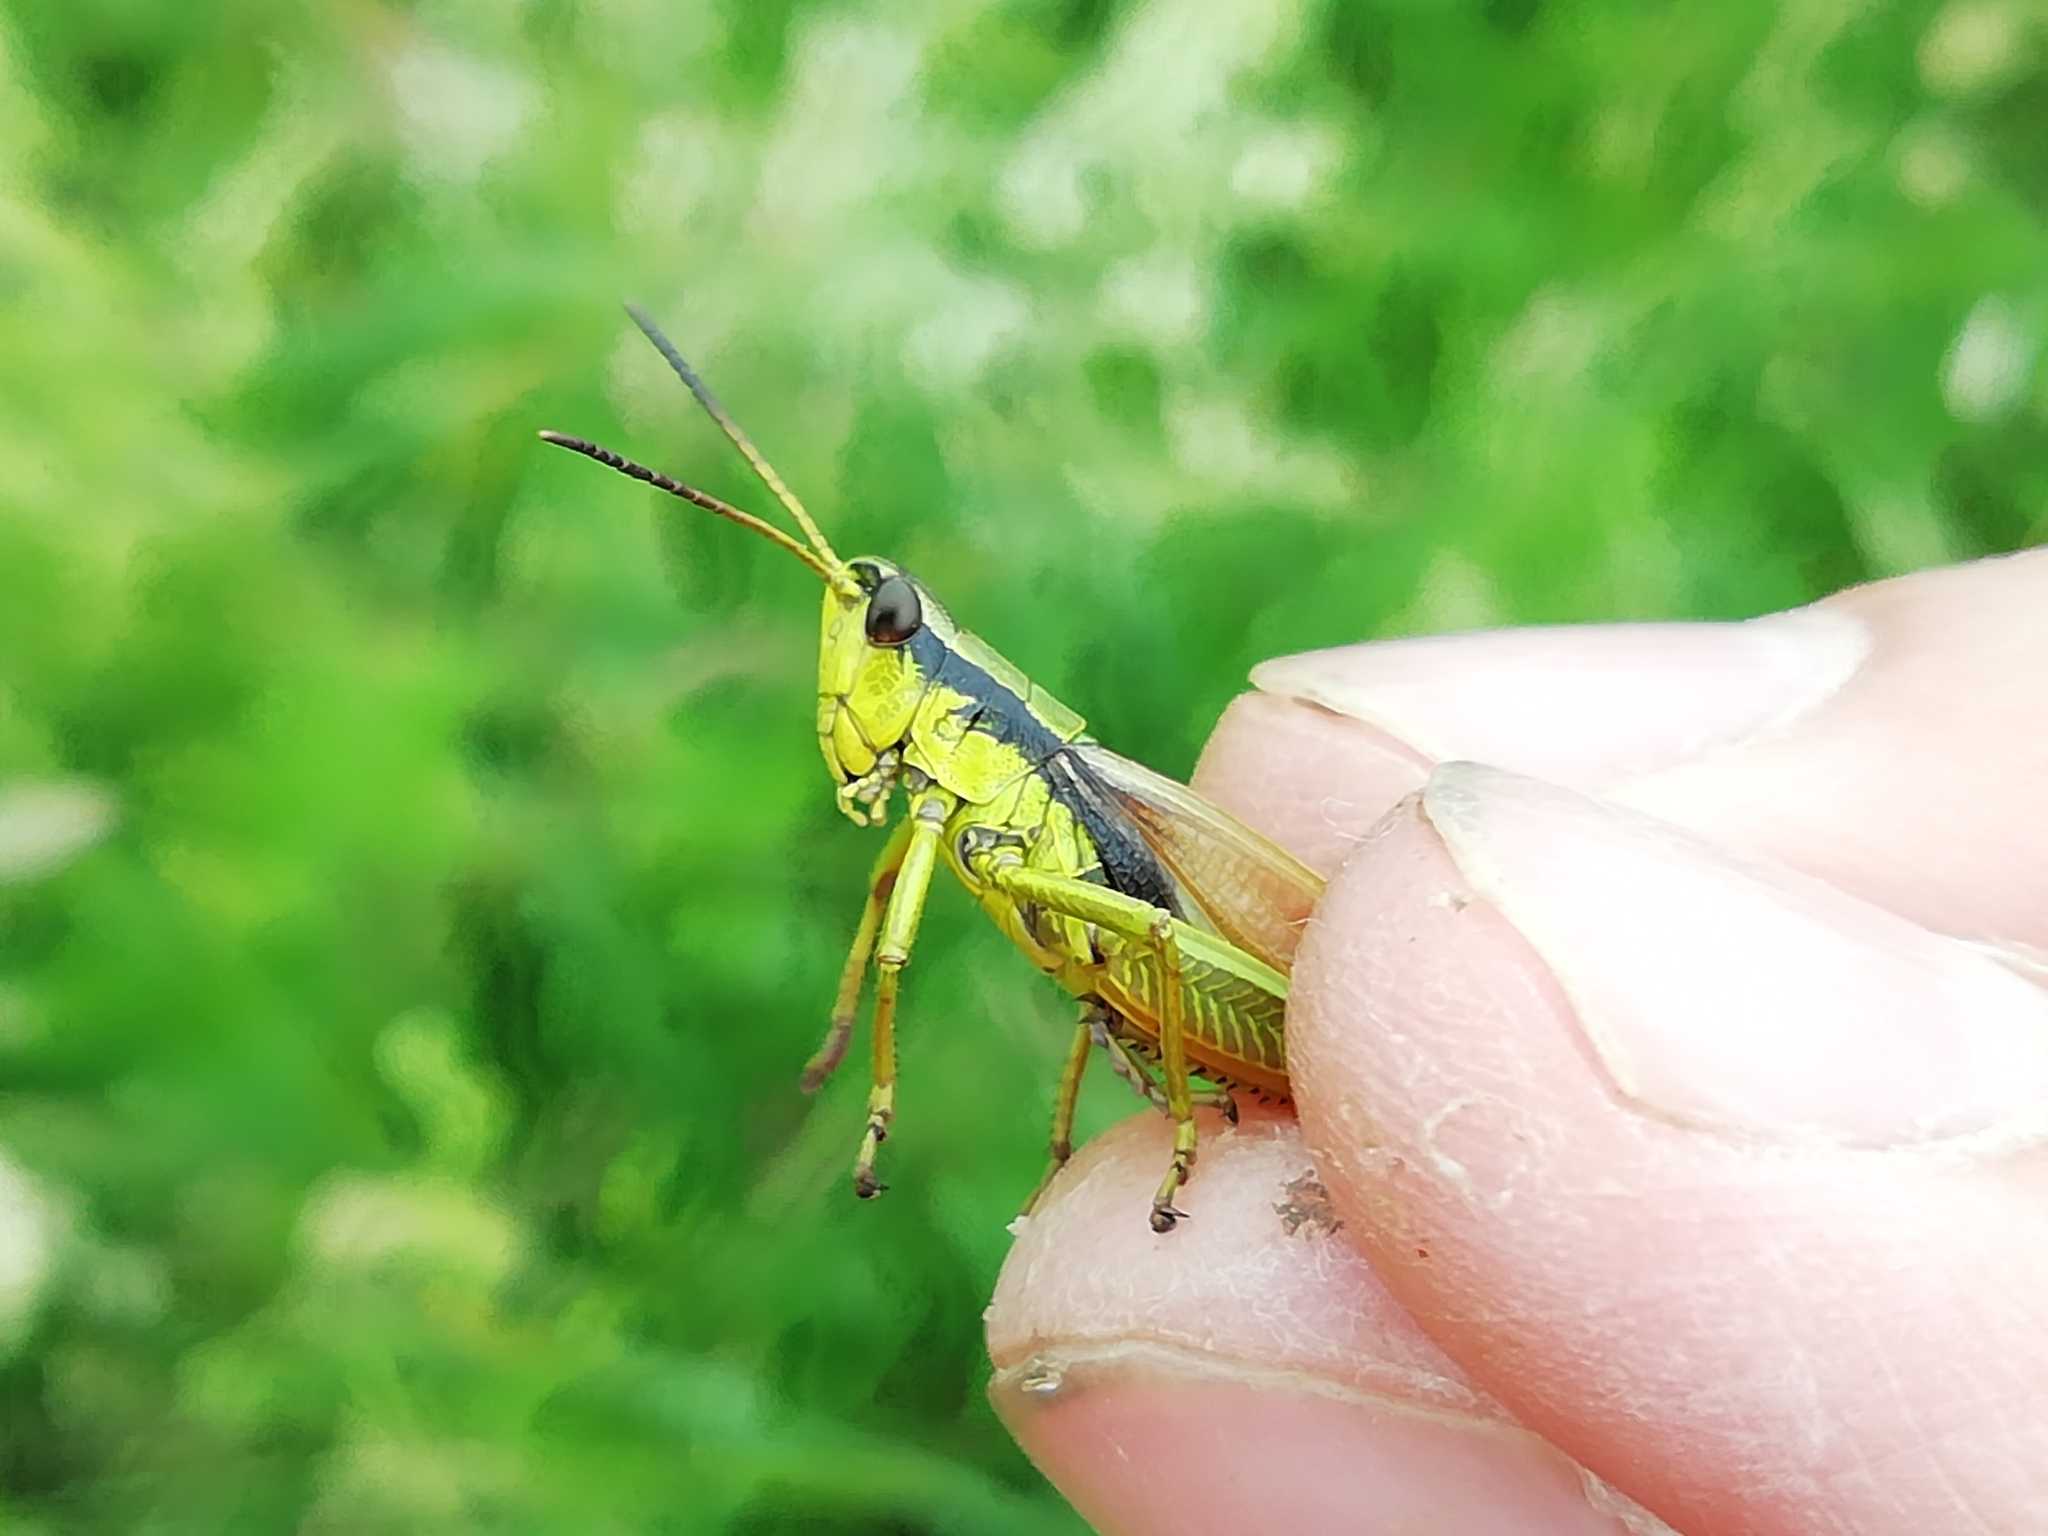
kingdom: Animalia
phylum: Arthropoda
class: Insecta
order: Orthoptera
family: Acrididae
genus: Podismopsis
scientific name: Podismopsis poppiusi
